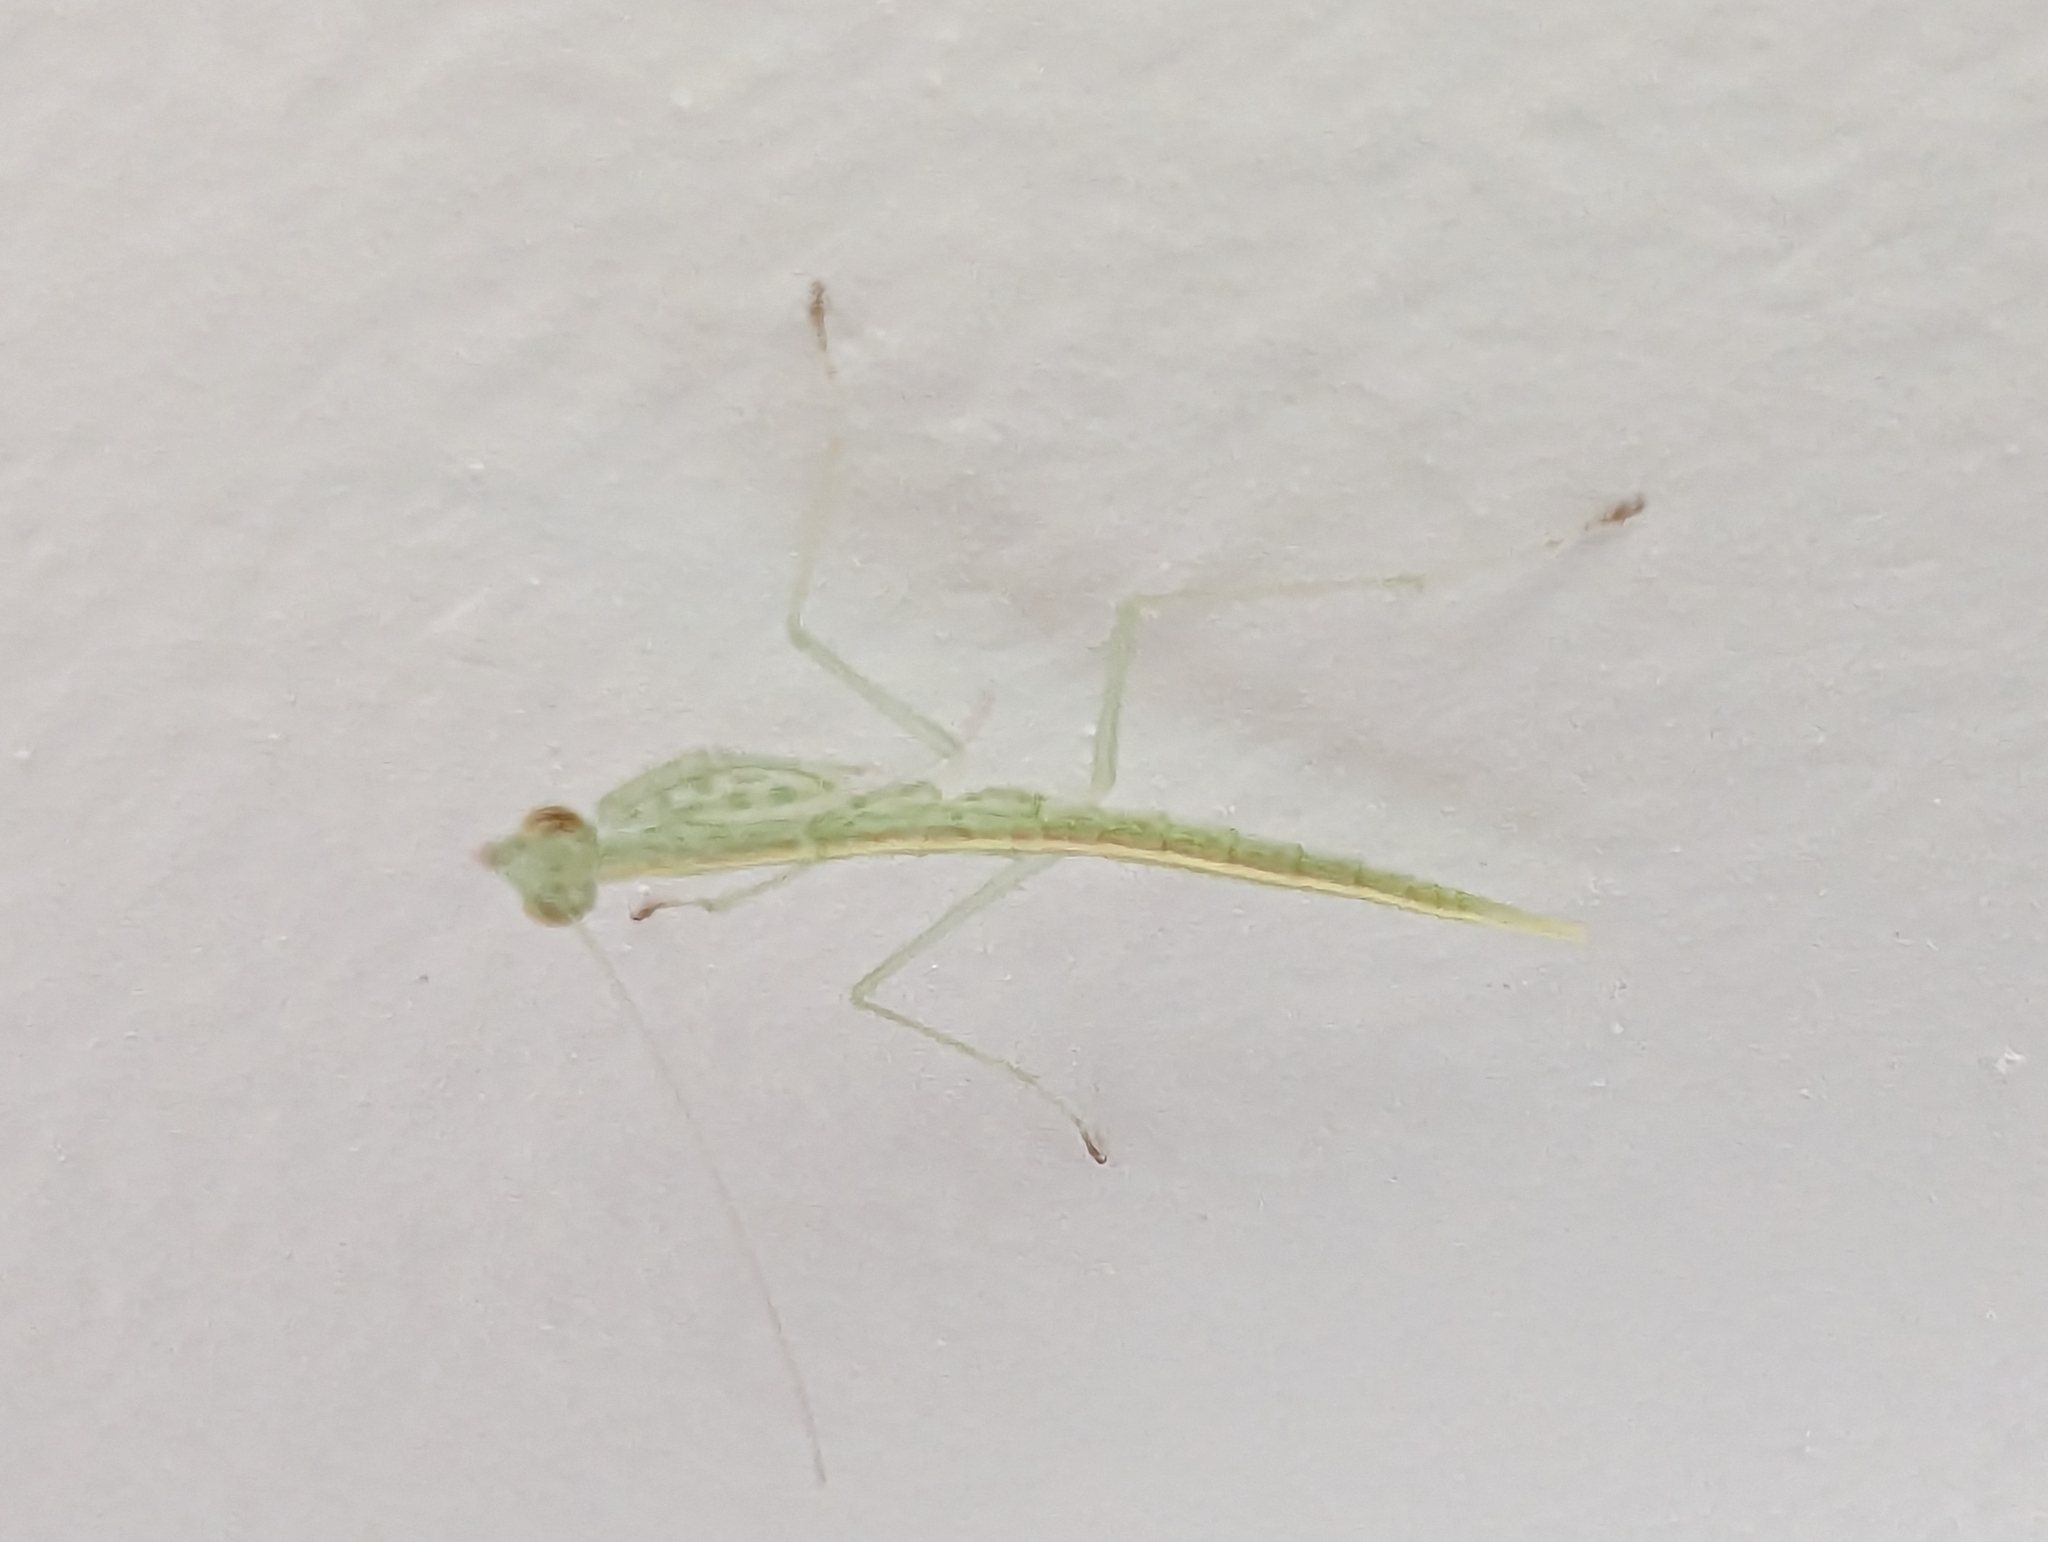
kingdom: Animalia
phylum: Arthropoda
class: Insecta
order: Mantodea
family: Nanomantidae
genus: Kongobatha
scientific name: Kongobatha diademata
